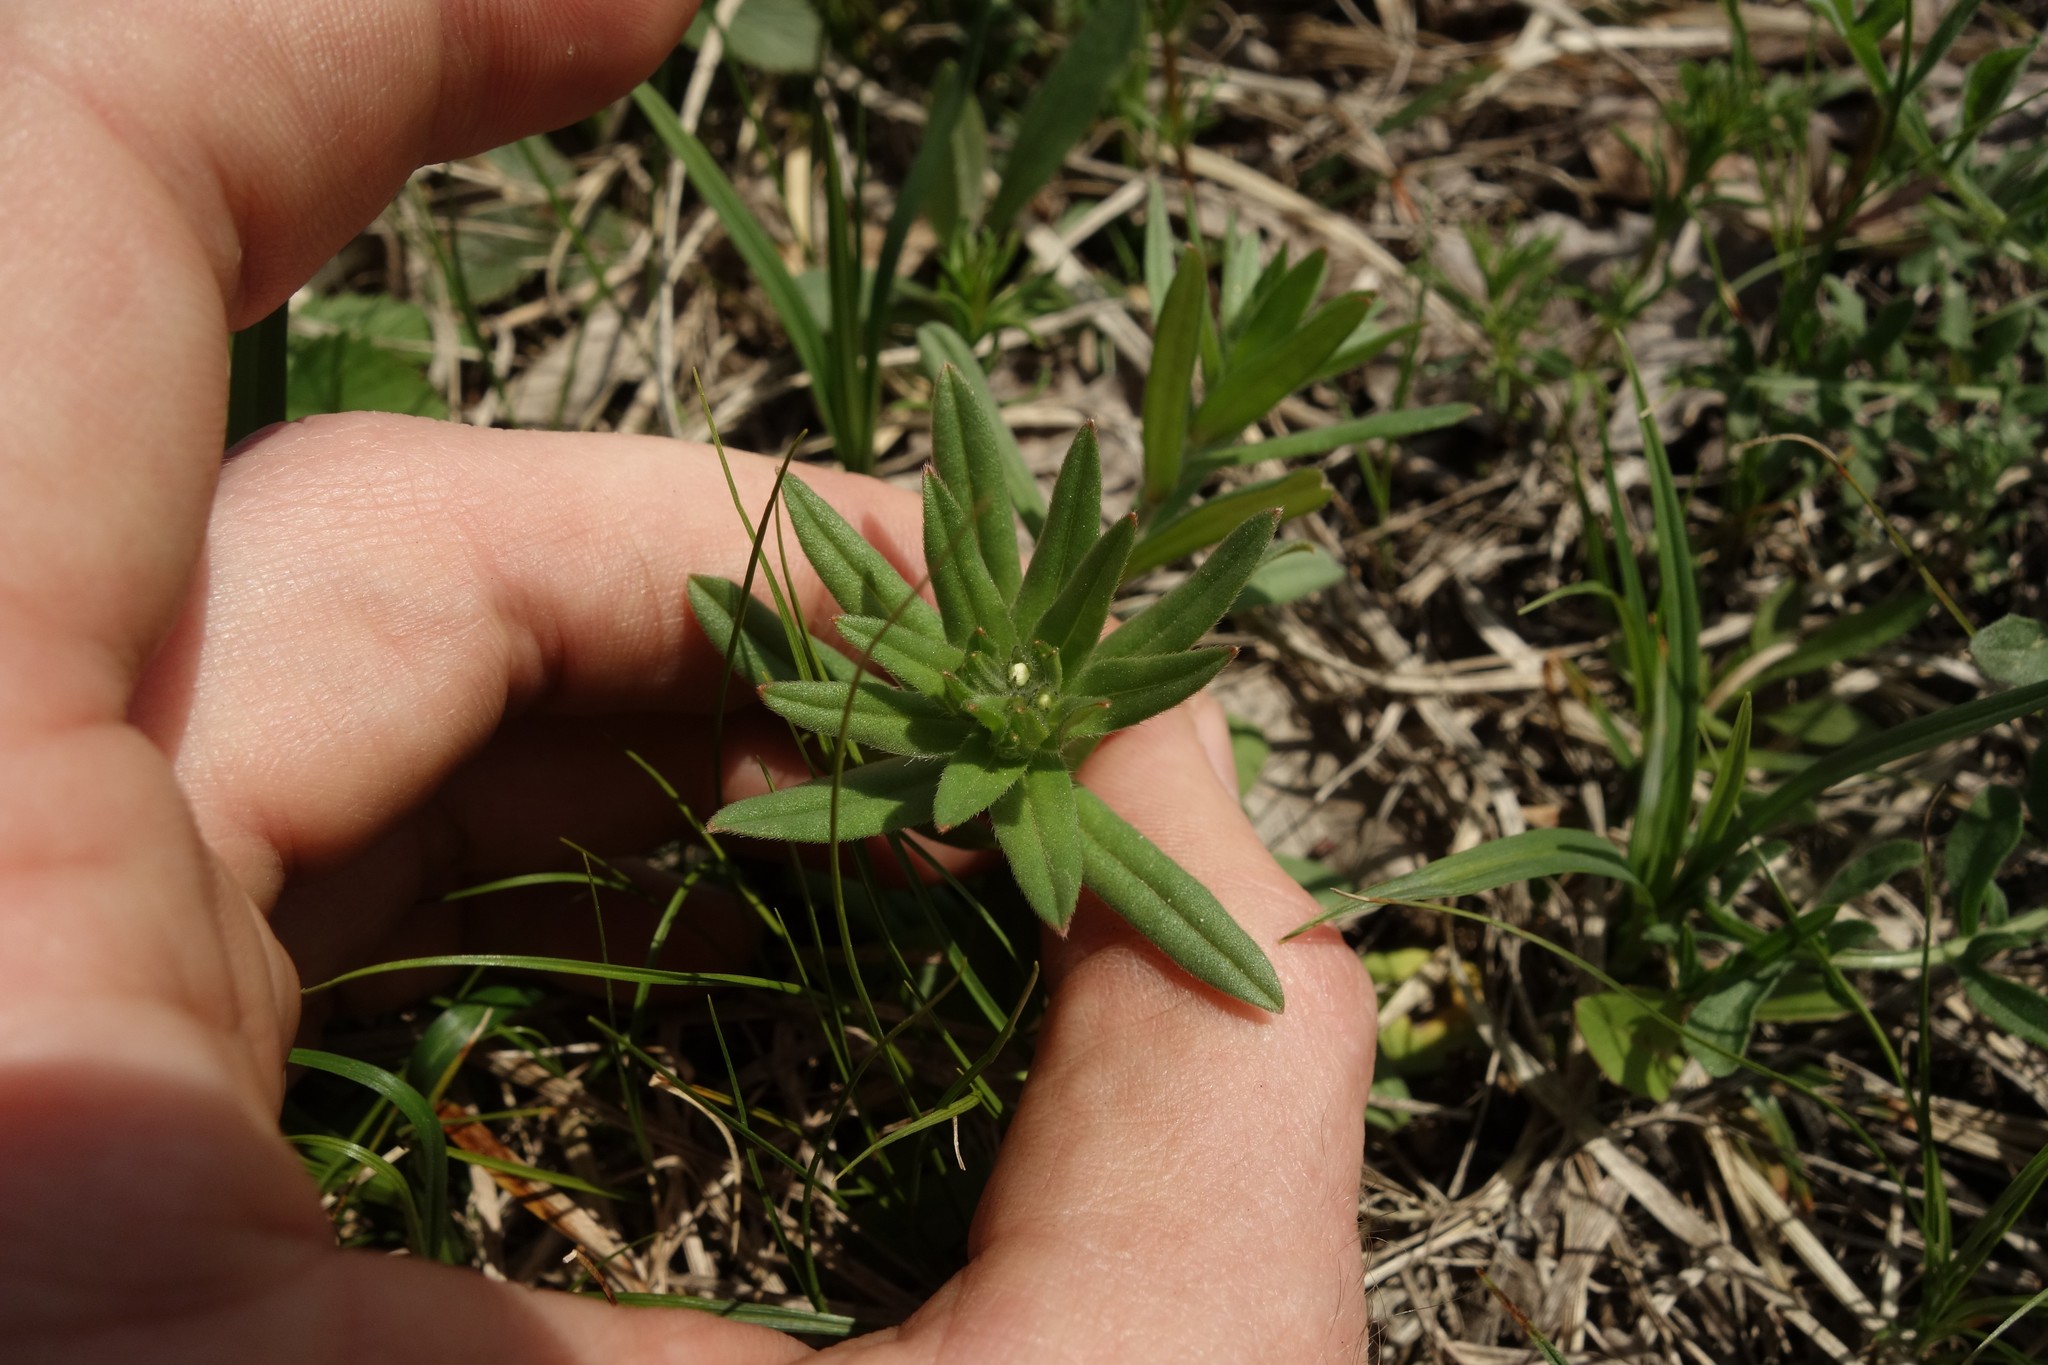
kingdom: Plantae
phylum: Tracheophyta
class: Magnoliopsida
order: Boraginales
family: Boraginaceae
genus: Buglossoides
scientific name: Buglossoides arvensis
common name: Corn gromwell
